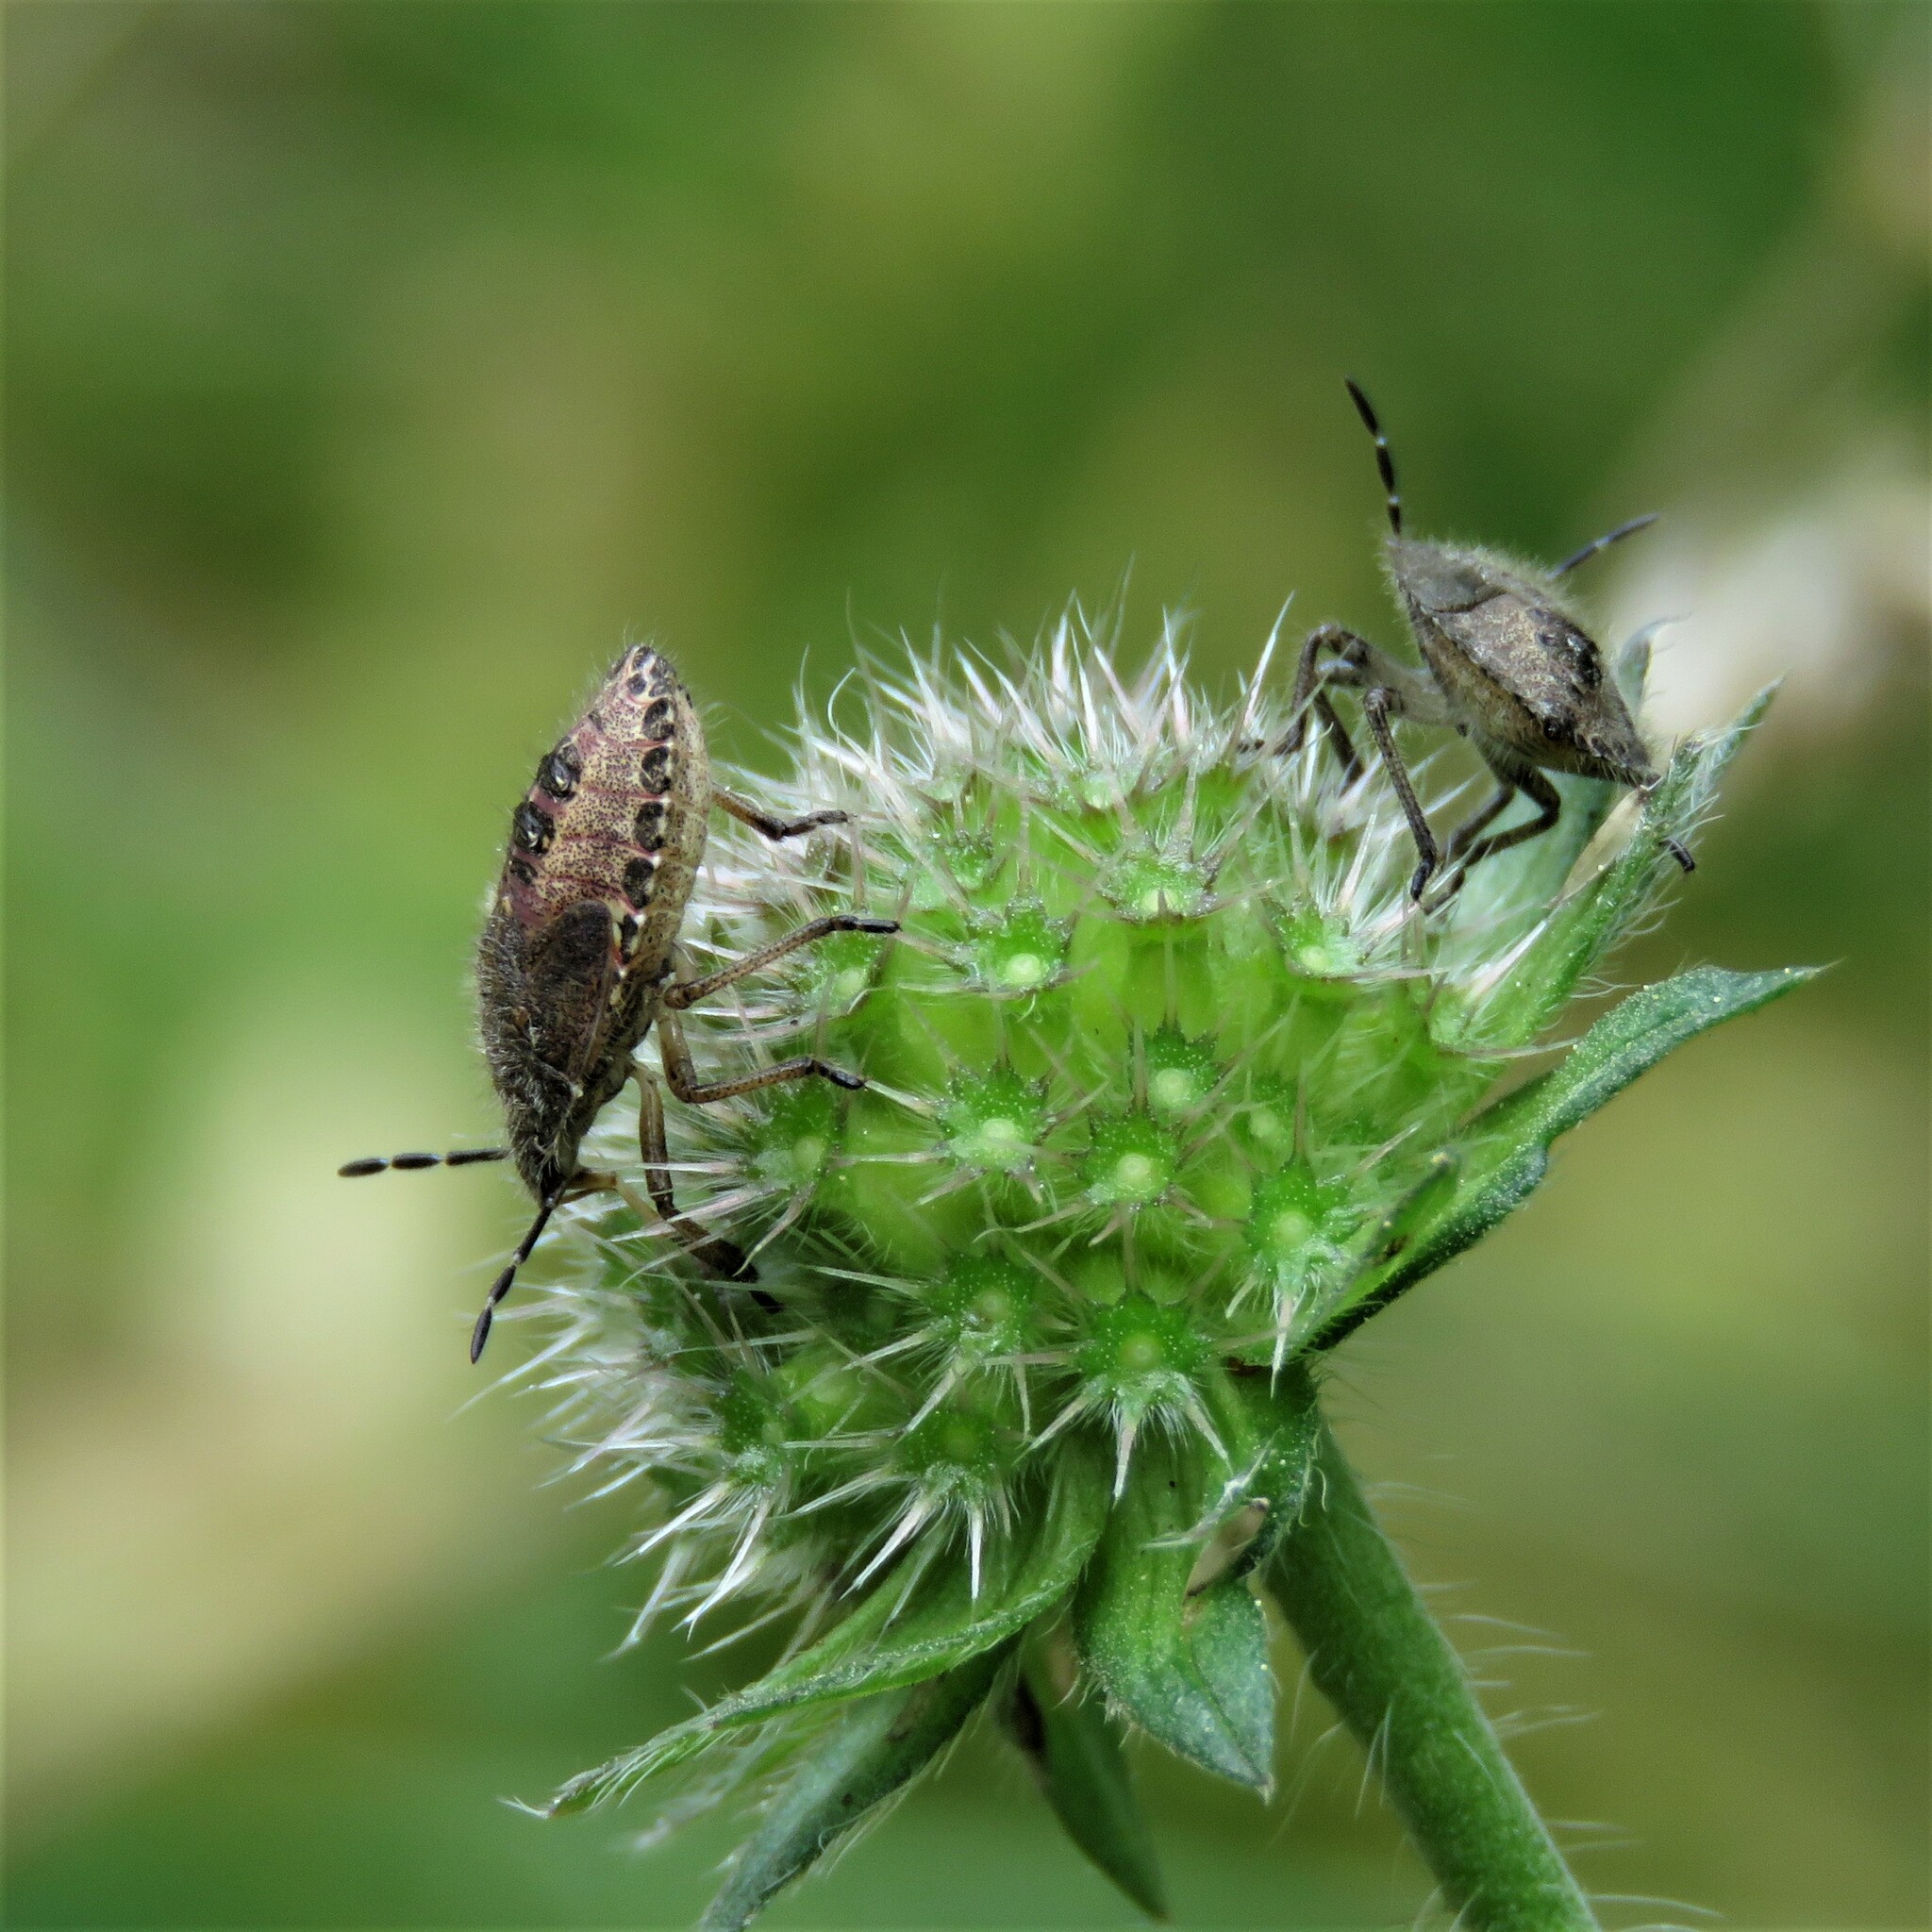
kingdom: Animalia
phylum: Arthropoda
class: Insecta
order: Hemiptera
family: Pentatomidae
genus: Dolycoris
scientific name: Dolycoris baccarum
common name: Sloe bug
